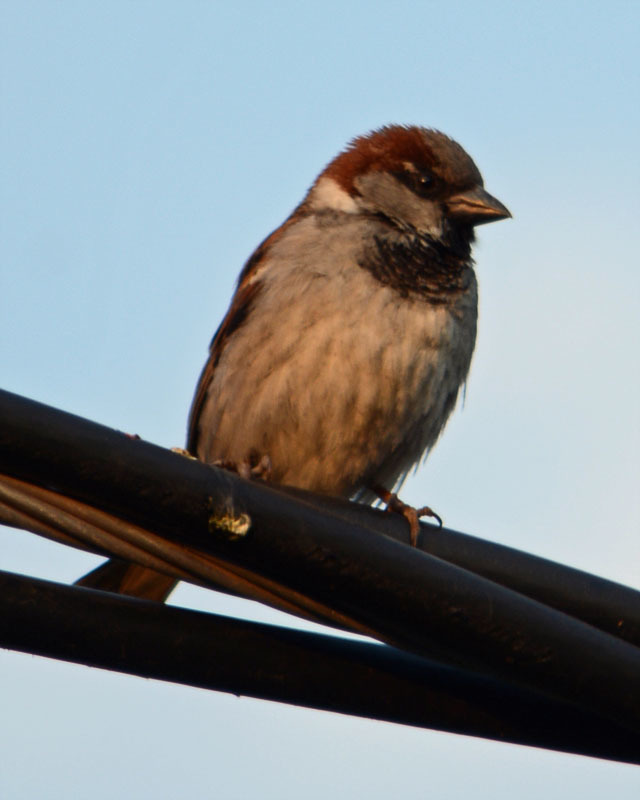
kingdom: Animalia
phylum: Chordata
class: Aves
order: Passeriformes
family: Passeridae
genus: Passer
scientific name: Passer domesticus
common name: House sparrow
